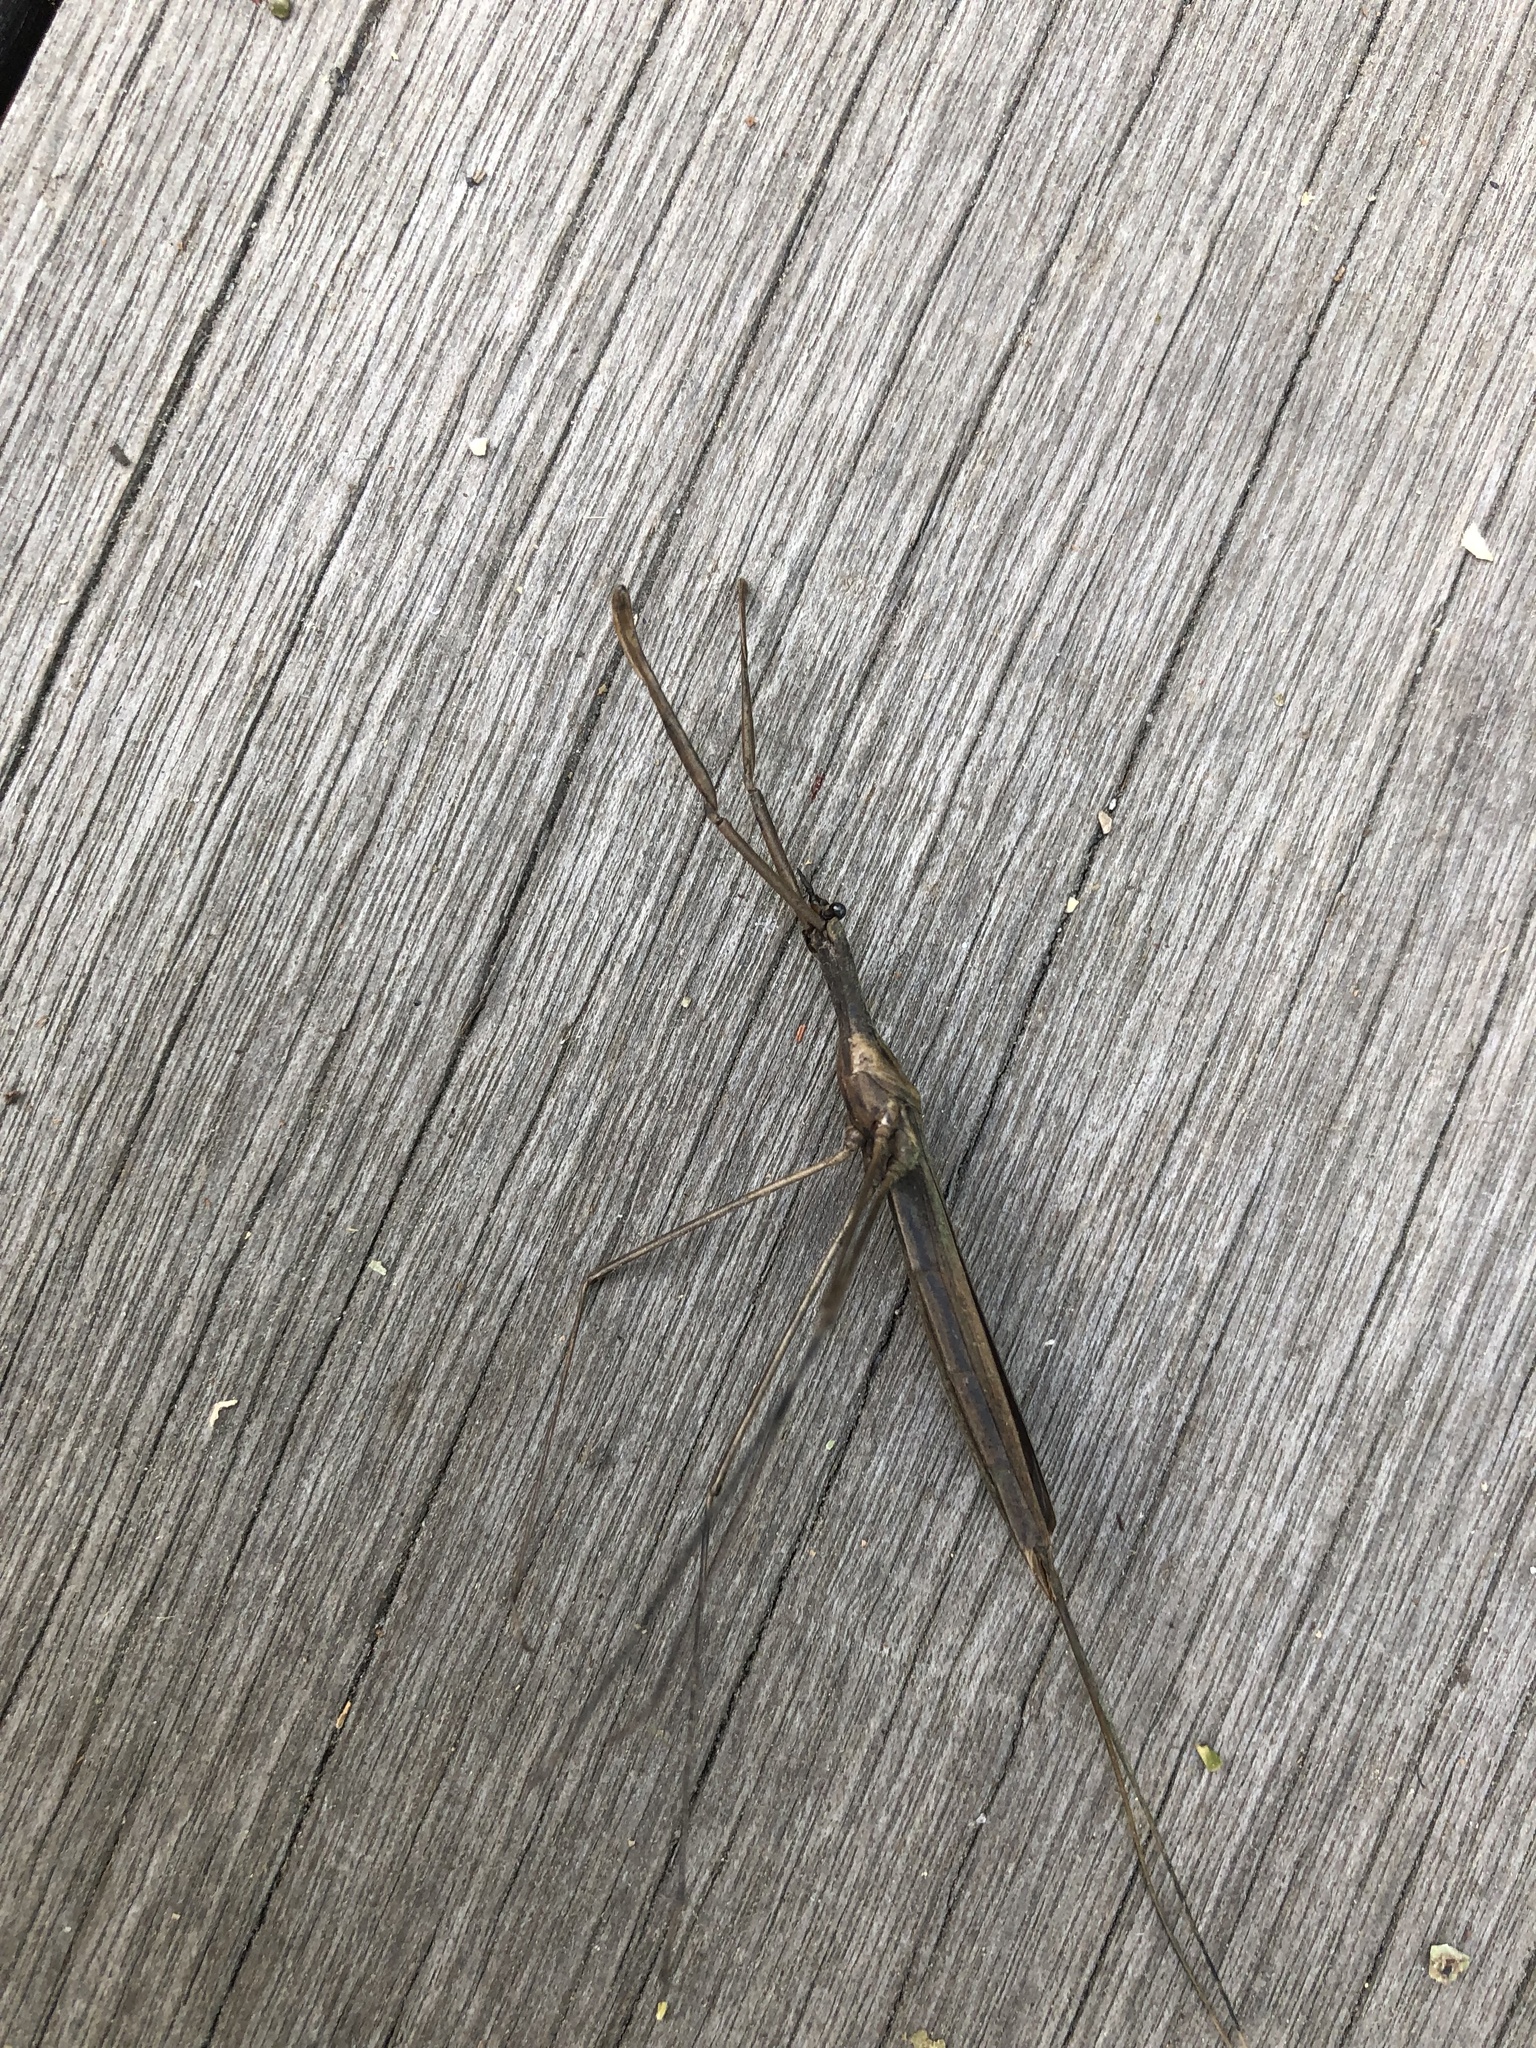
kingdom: Animalia
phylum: Arthropoda
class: Insecta
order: Hemiptera
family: Nepidae
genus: Ranatra
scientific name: Ranatra
